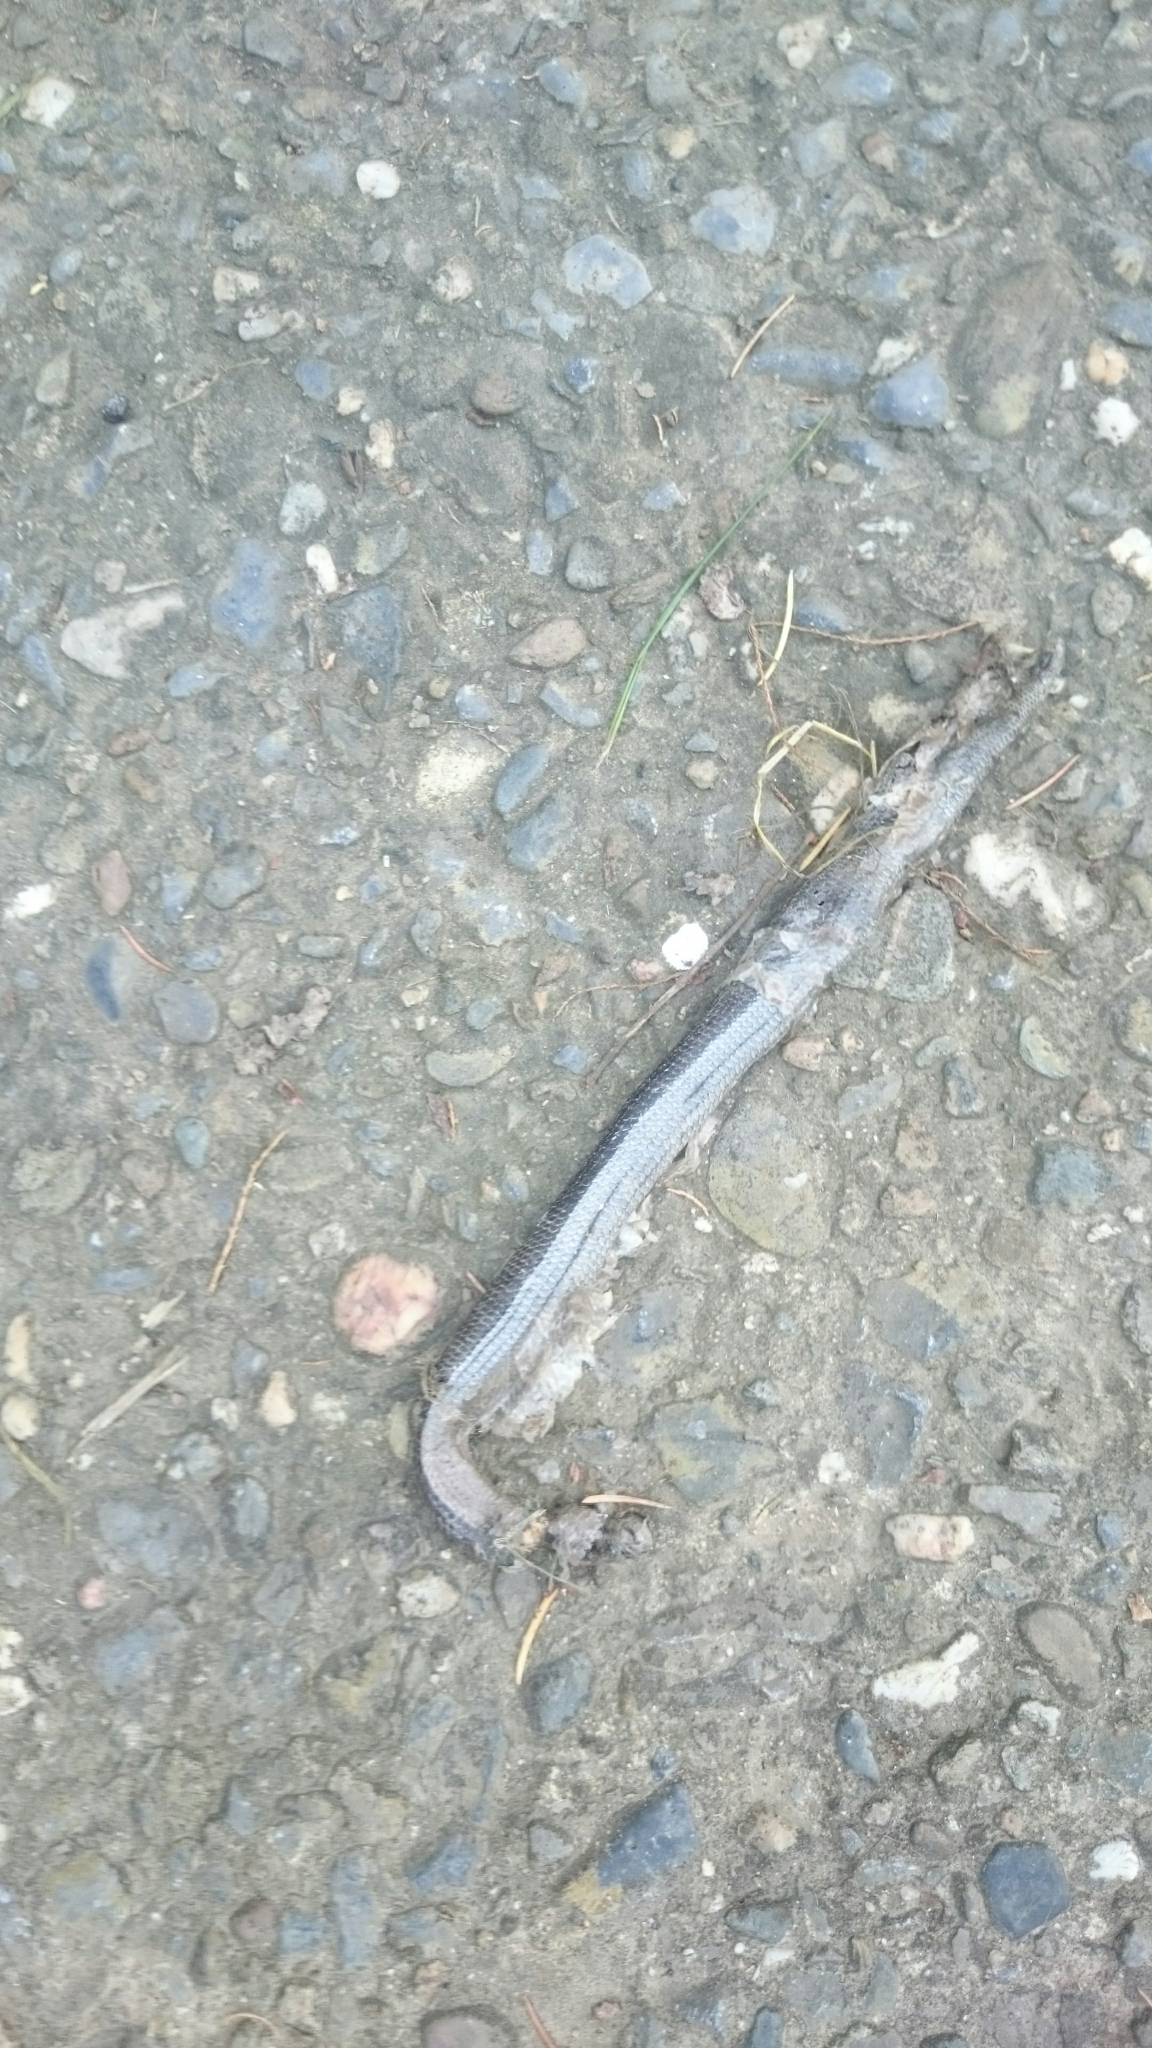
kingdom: Animalia
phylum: Chordata
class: Squamata
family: Anguidae
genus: Anguis
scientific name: Anguis fragilis
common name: Slow worm
